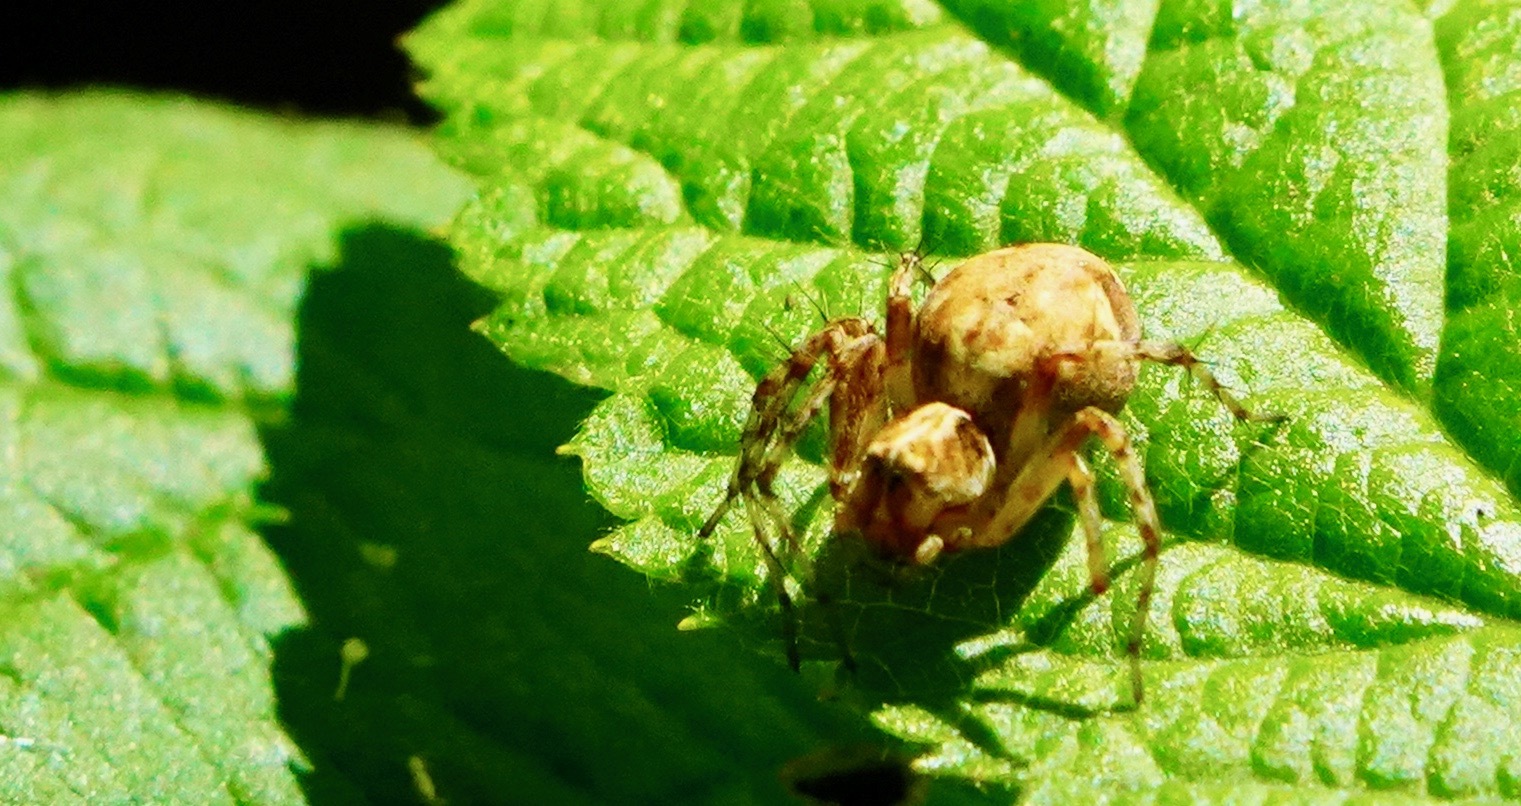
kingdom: Animalia
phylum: Arthropoda
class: Arachnida
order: Araneae
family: Oxyopidae
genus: Oxyopes
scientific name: Oxyopes scalaris
